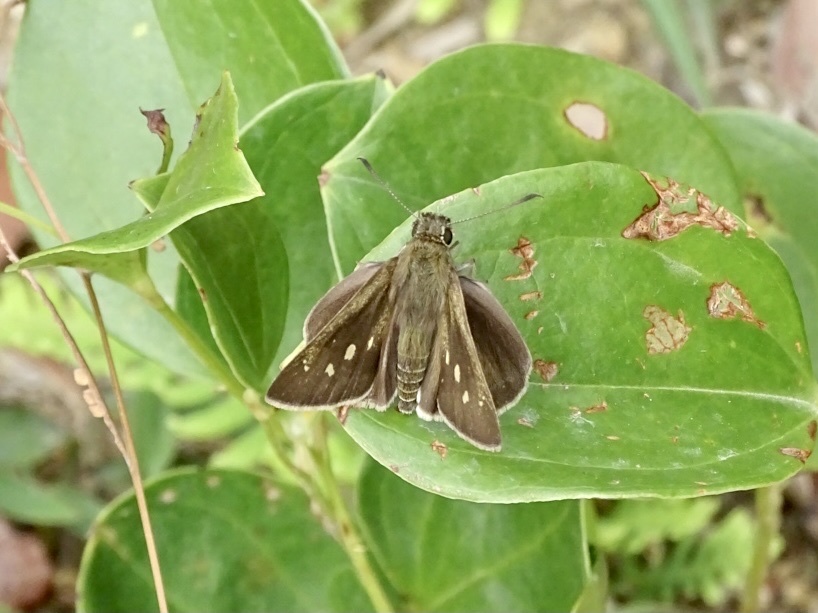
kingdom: Animalia
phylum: Arthropoda
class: Insecta
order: Lepidoptera
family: Hesperiidae
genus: Suastus
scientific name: Suastus gremius
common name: Indian palm bob
